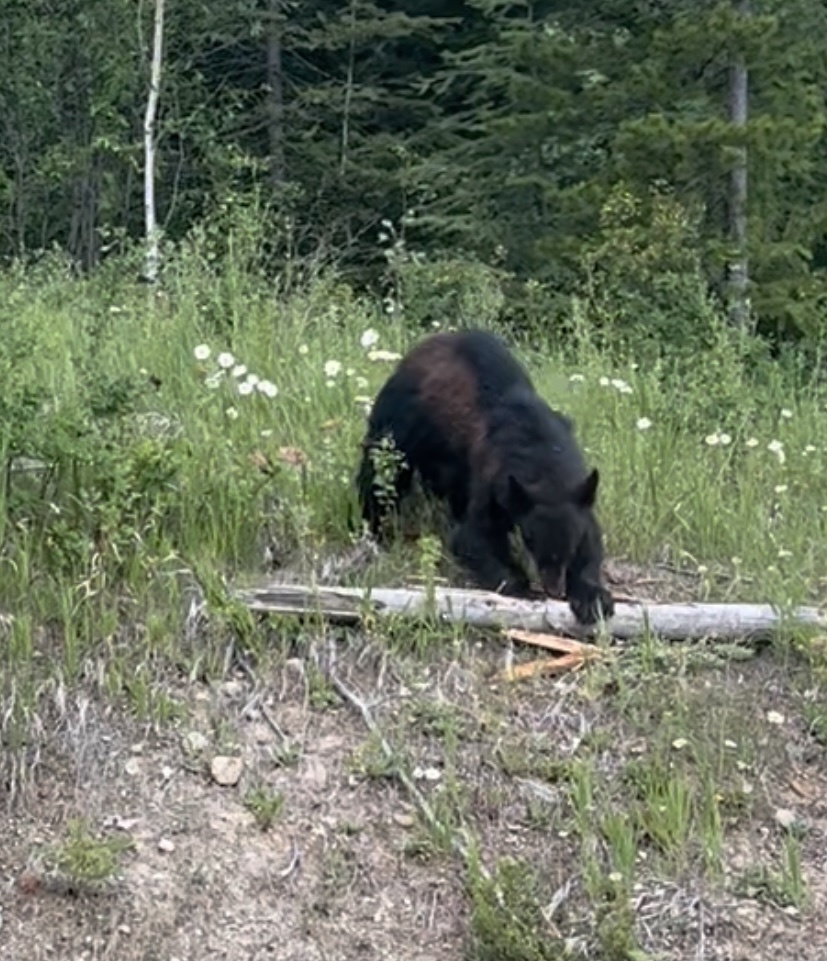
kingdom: Animalia
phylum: Chordata
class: Mammalia
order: Carnivora
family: Ursidae
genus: Ursus
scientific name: Ursus americanus
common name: American black bear
